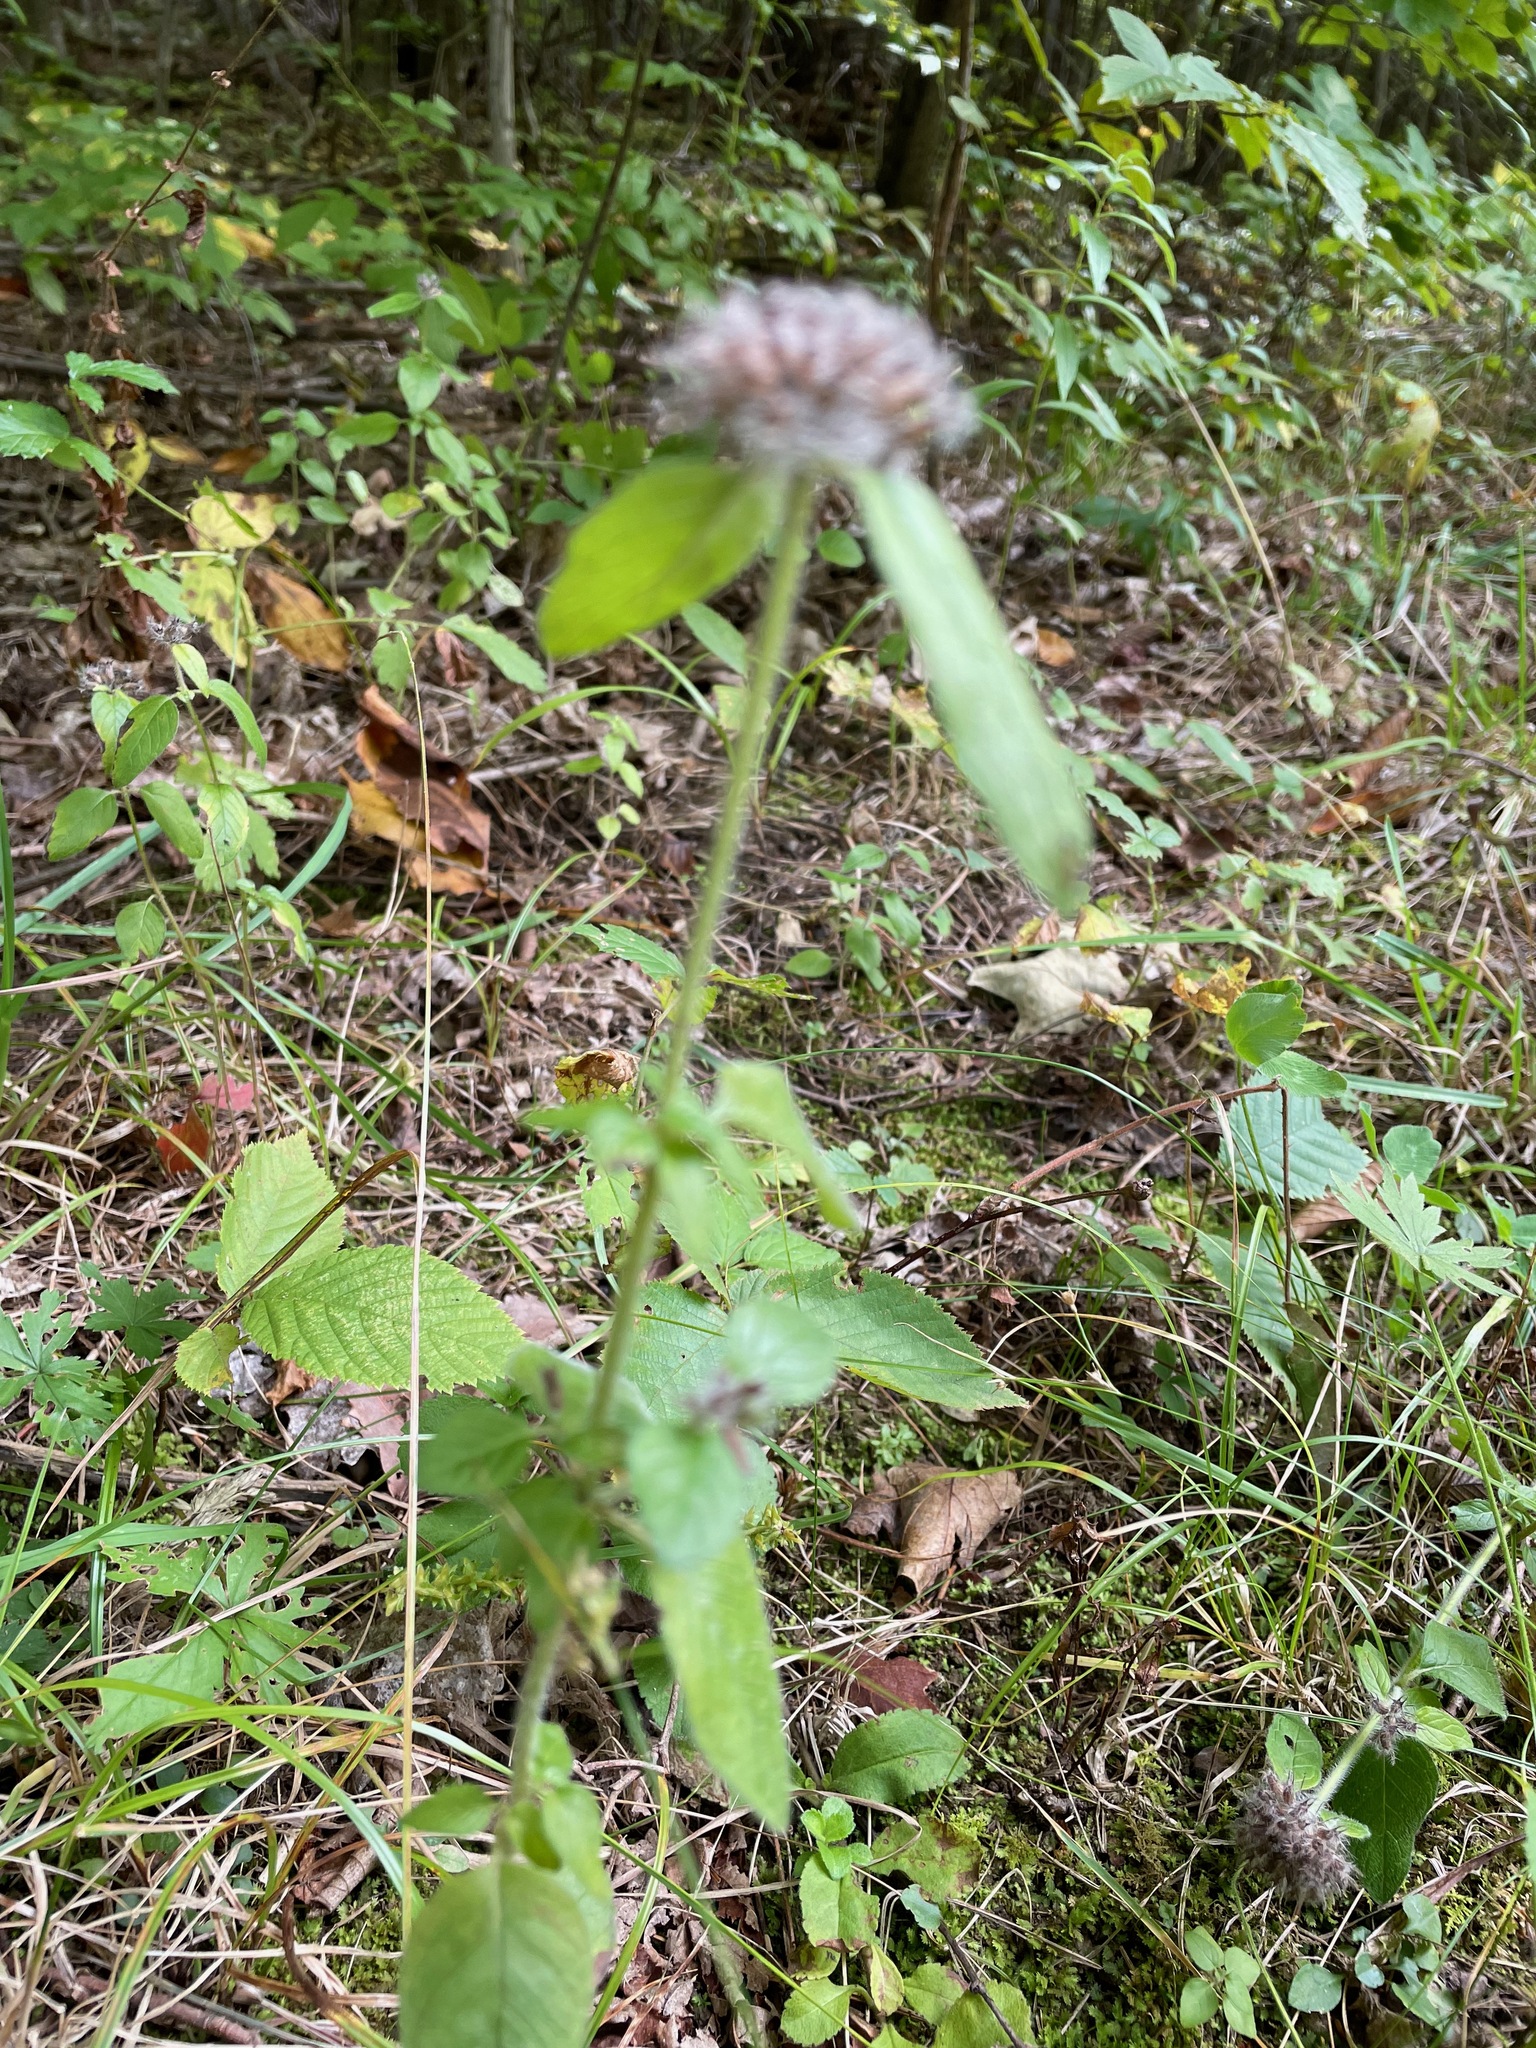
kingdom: Plantae
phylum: Tracheophyta
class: Magnoliopsida
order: Lamiales
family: Lamiaceae
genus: Clinopodium
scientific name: Clinopodium vulgare
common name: Wild basil
